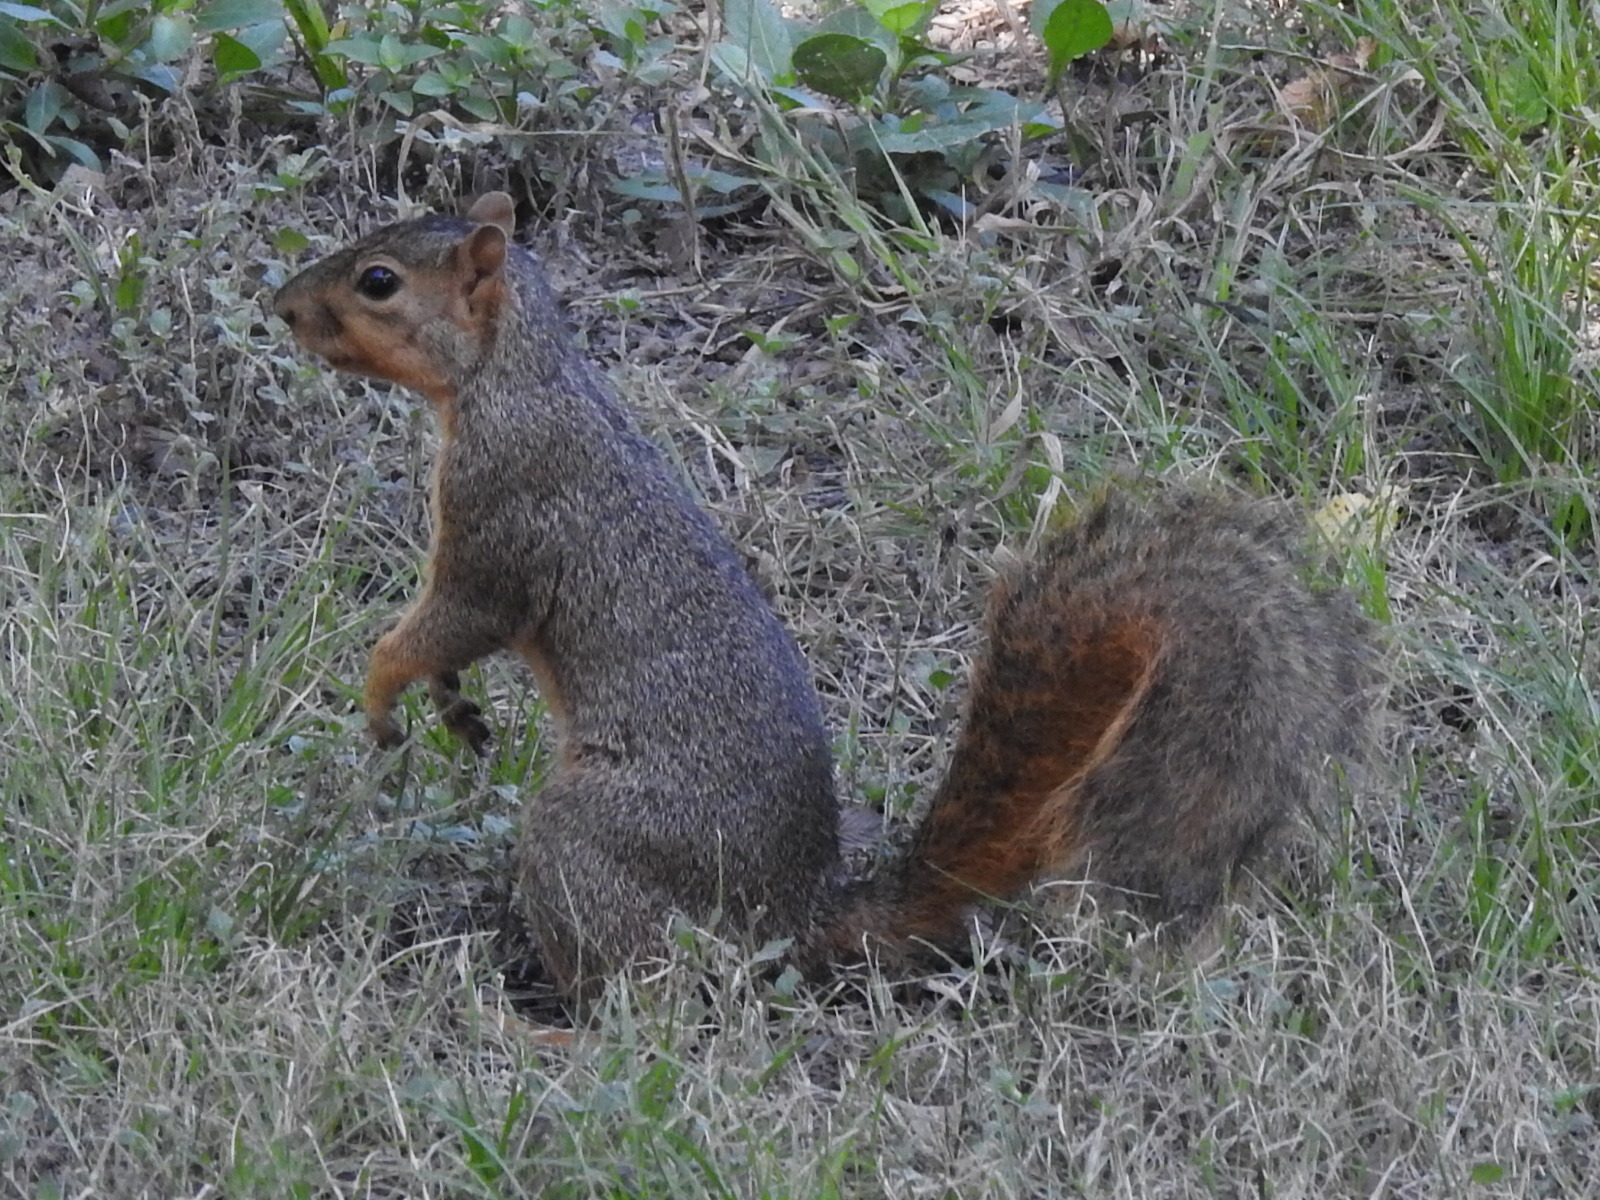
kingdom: Animalia
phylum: Chordata
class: Mammalia
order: Rodentia
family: Sciuridae
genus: Sciurus
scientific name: Sciurus niger
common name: Fox squirrel
